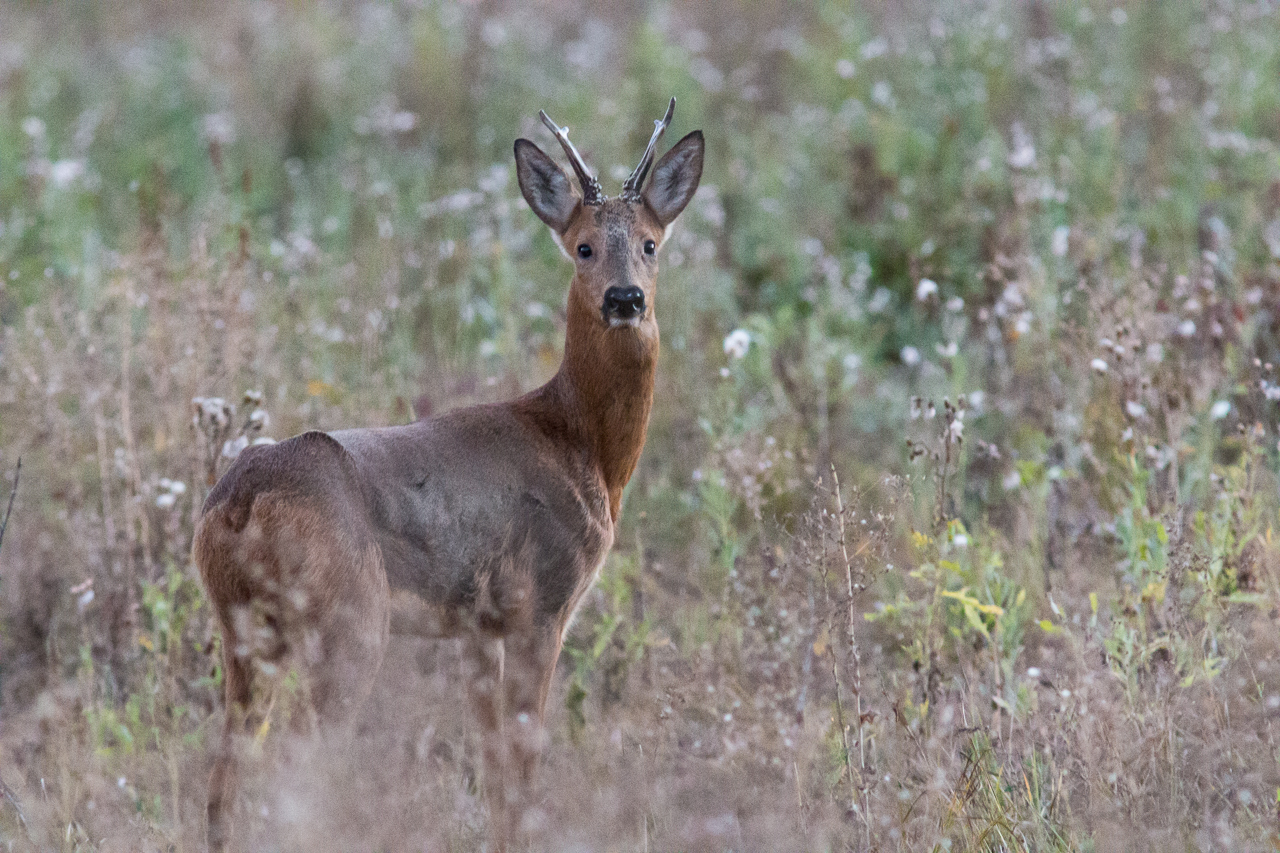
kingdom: Animalia
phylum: Chordata
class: Mammalia
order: Artiodactyla
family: Cervidae
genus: Capreolus
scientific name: Capreolus pygargus
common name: Siberian roe
